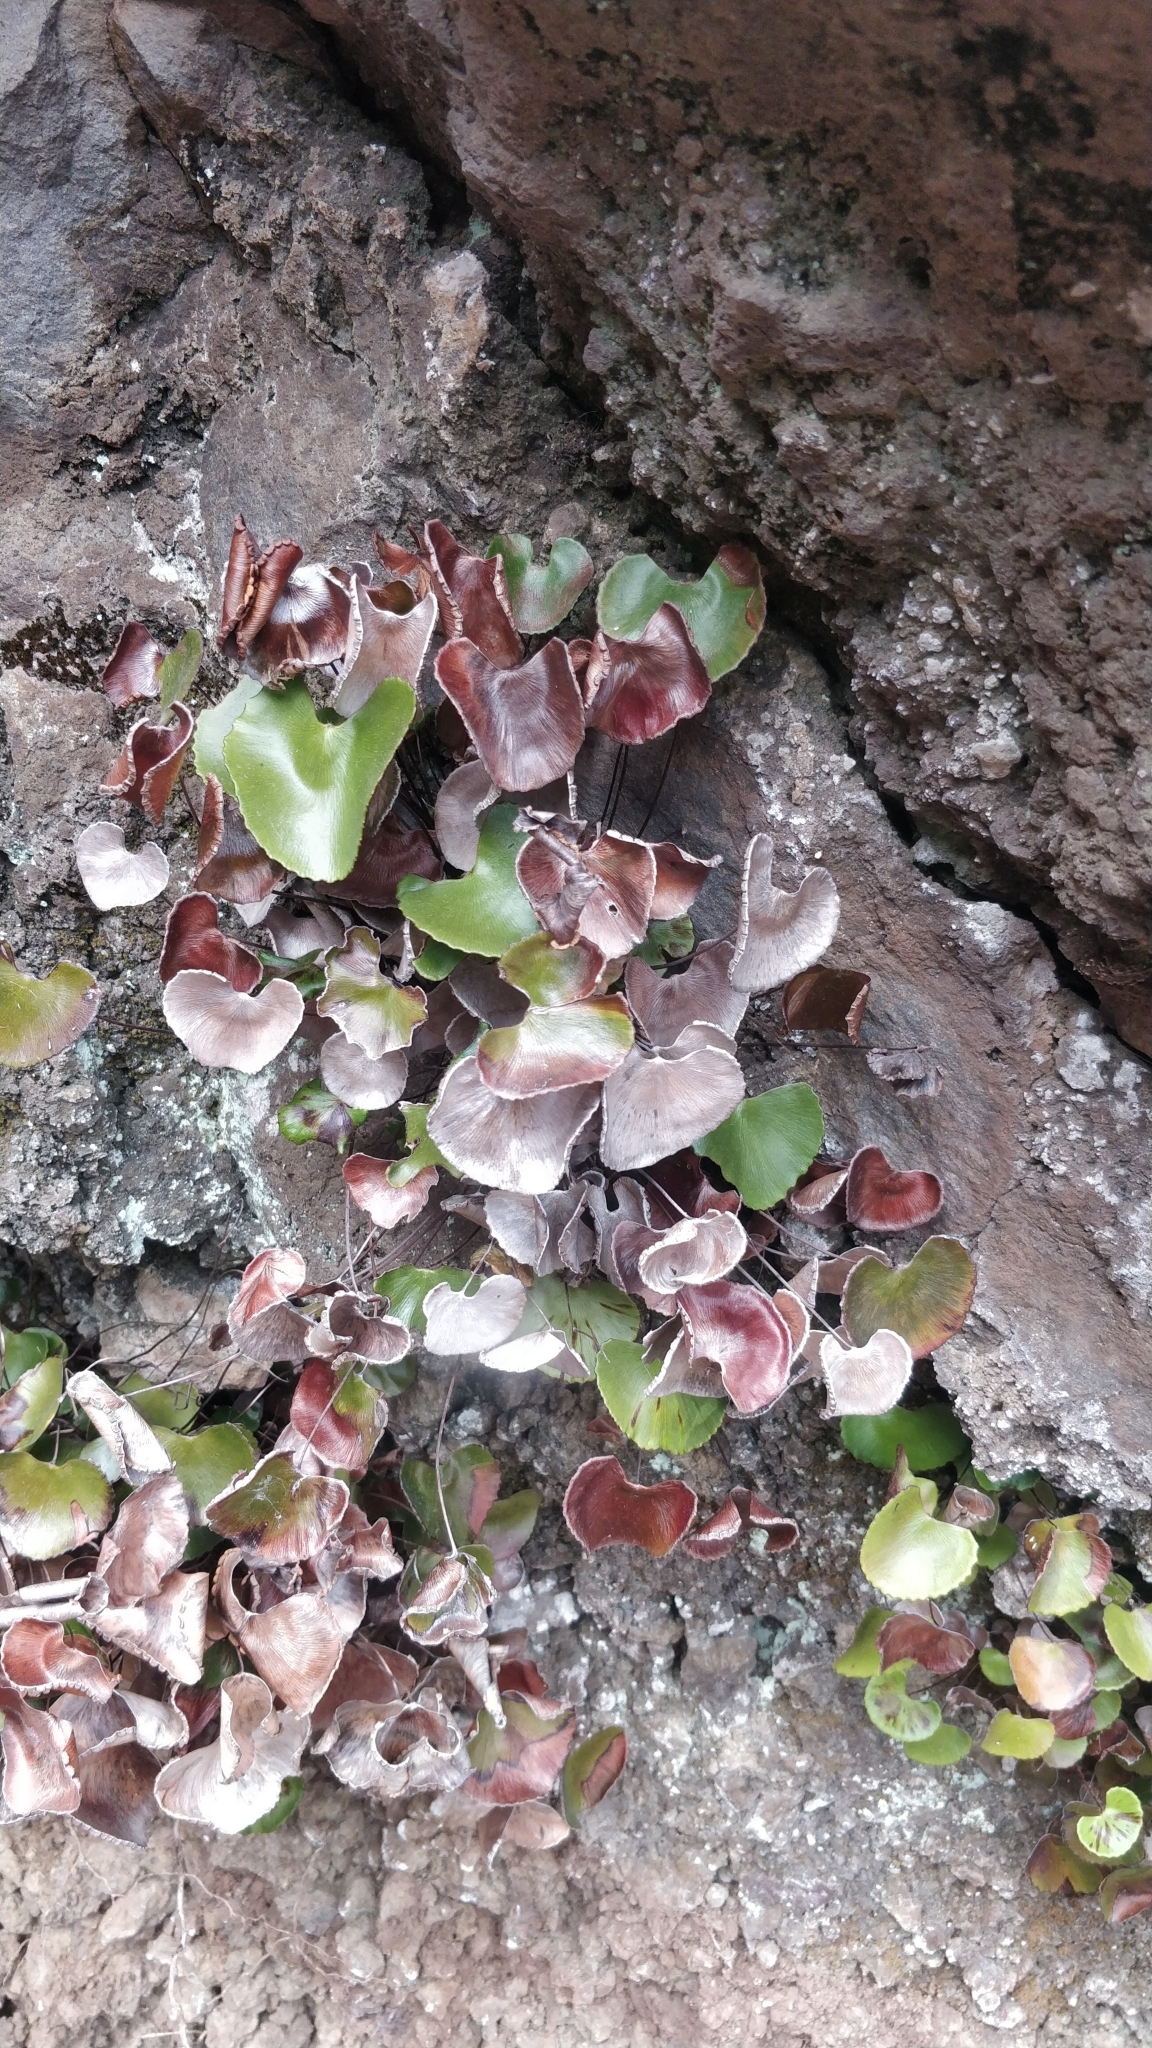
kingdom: Plantae
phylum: Tracheophyta
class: Polypodiopsida
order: Polypodiales
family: Pteridaceae
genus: Adiantum
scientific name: Adiantum reniforme
